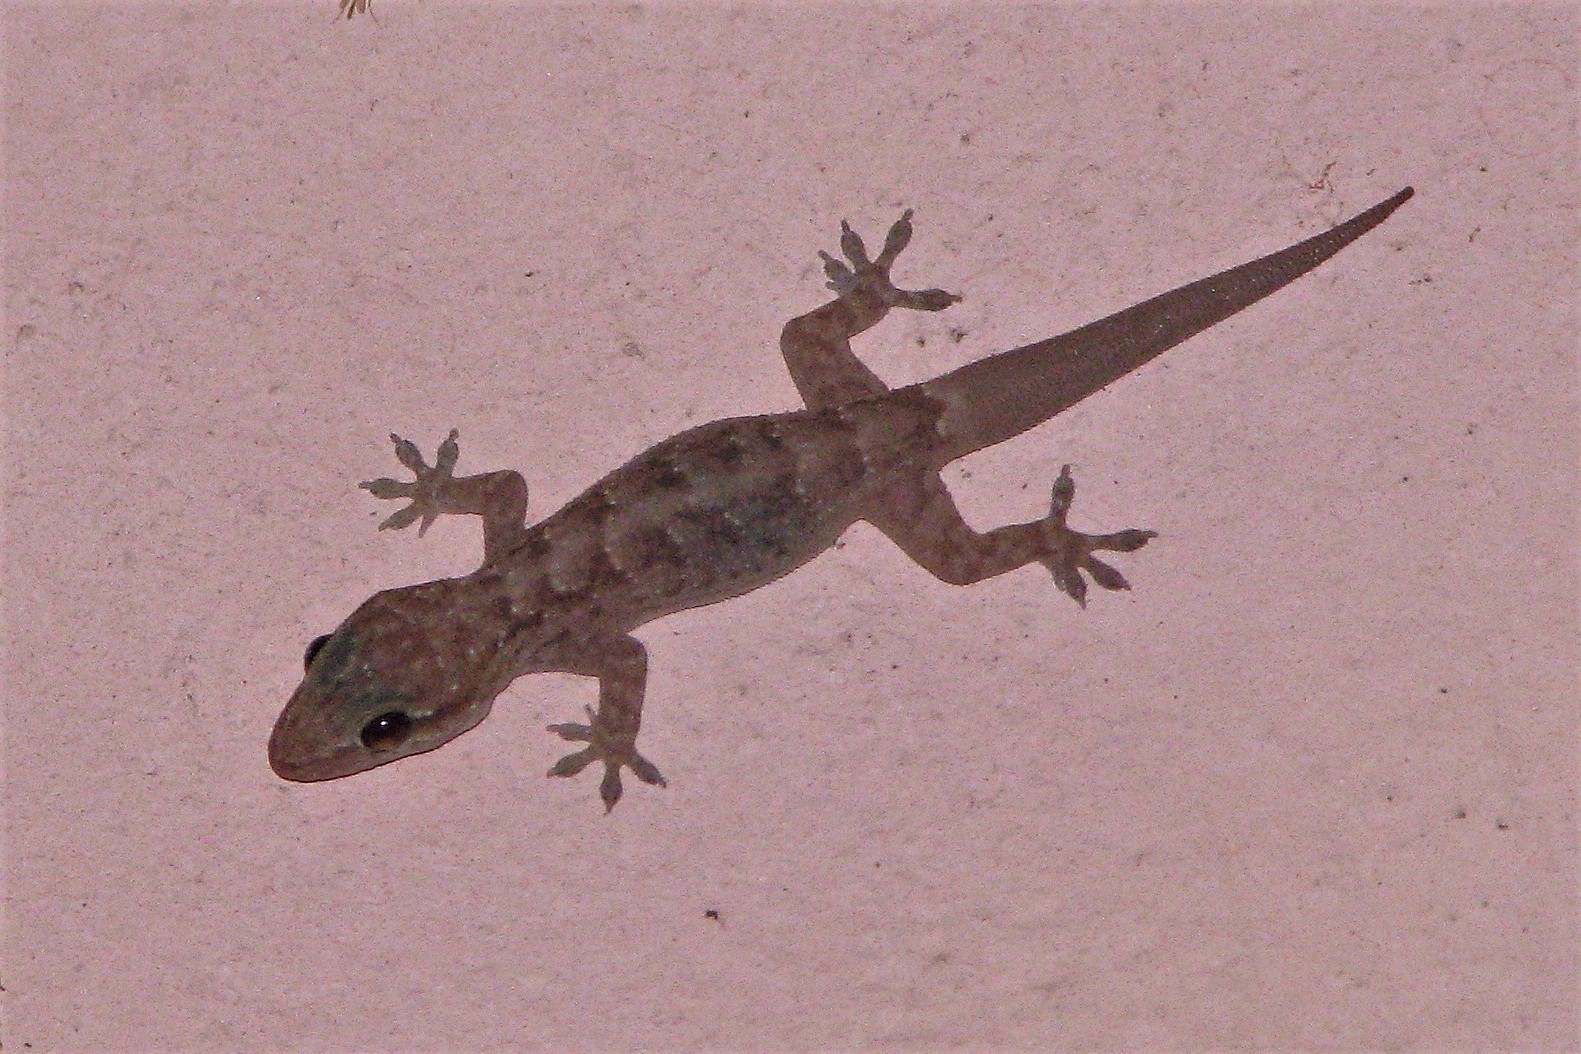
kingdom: Animalia
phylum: Chordata
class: Squamata
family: Phyllodactylidae
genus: Phyllopezus
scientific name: Phyllopezus przewalskii
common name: Przewalsky’s gecko
